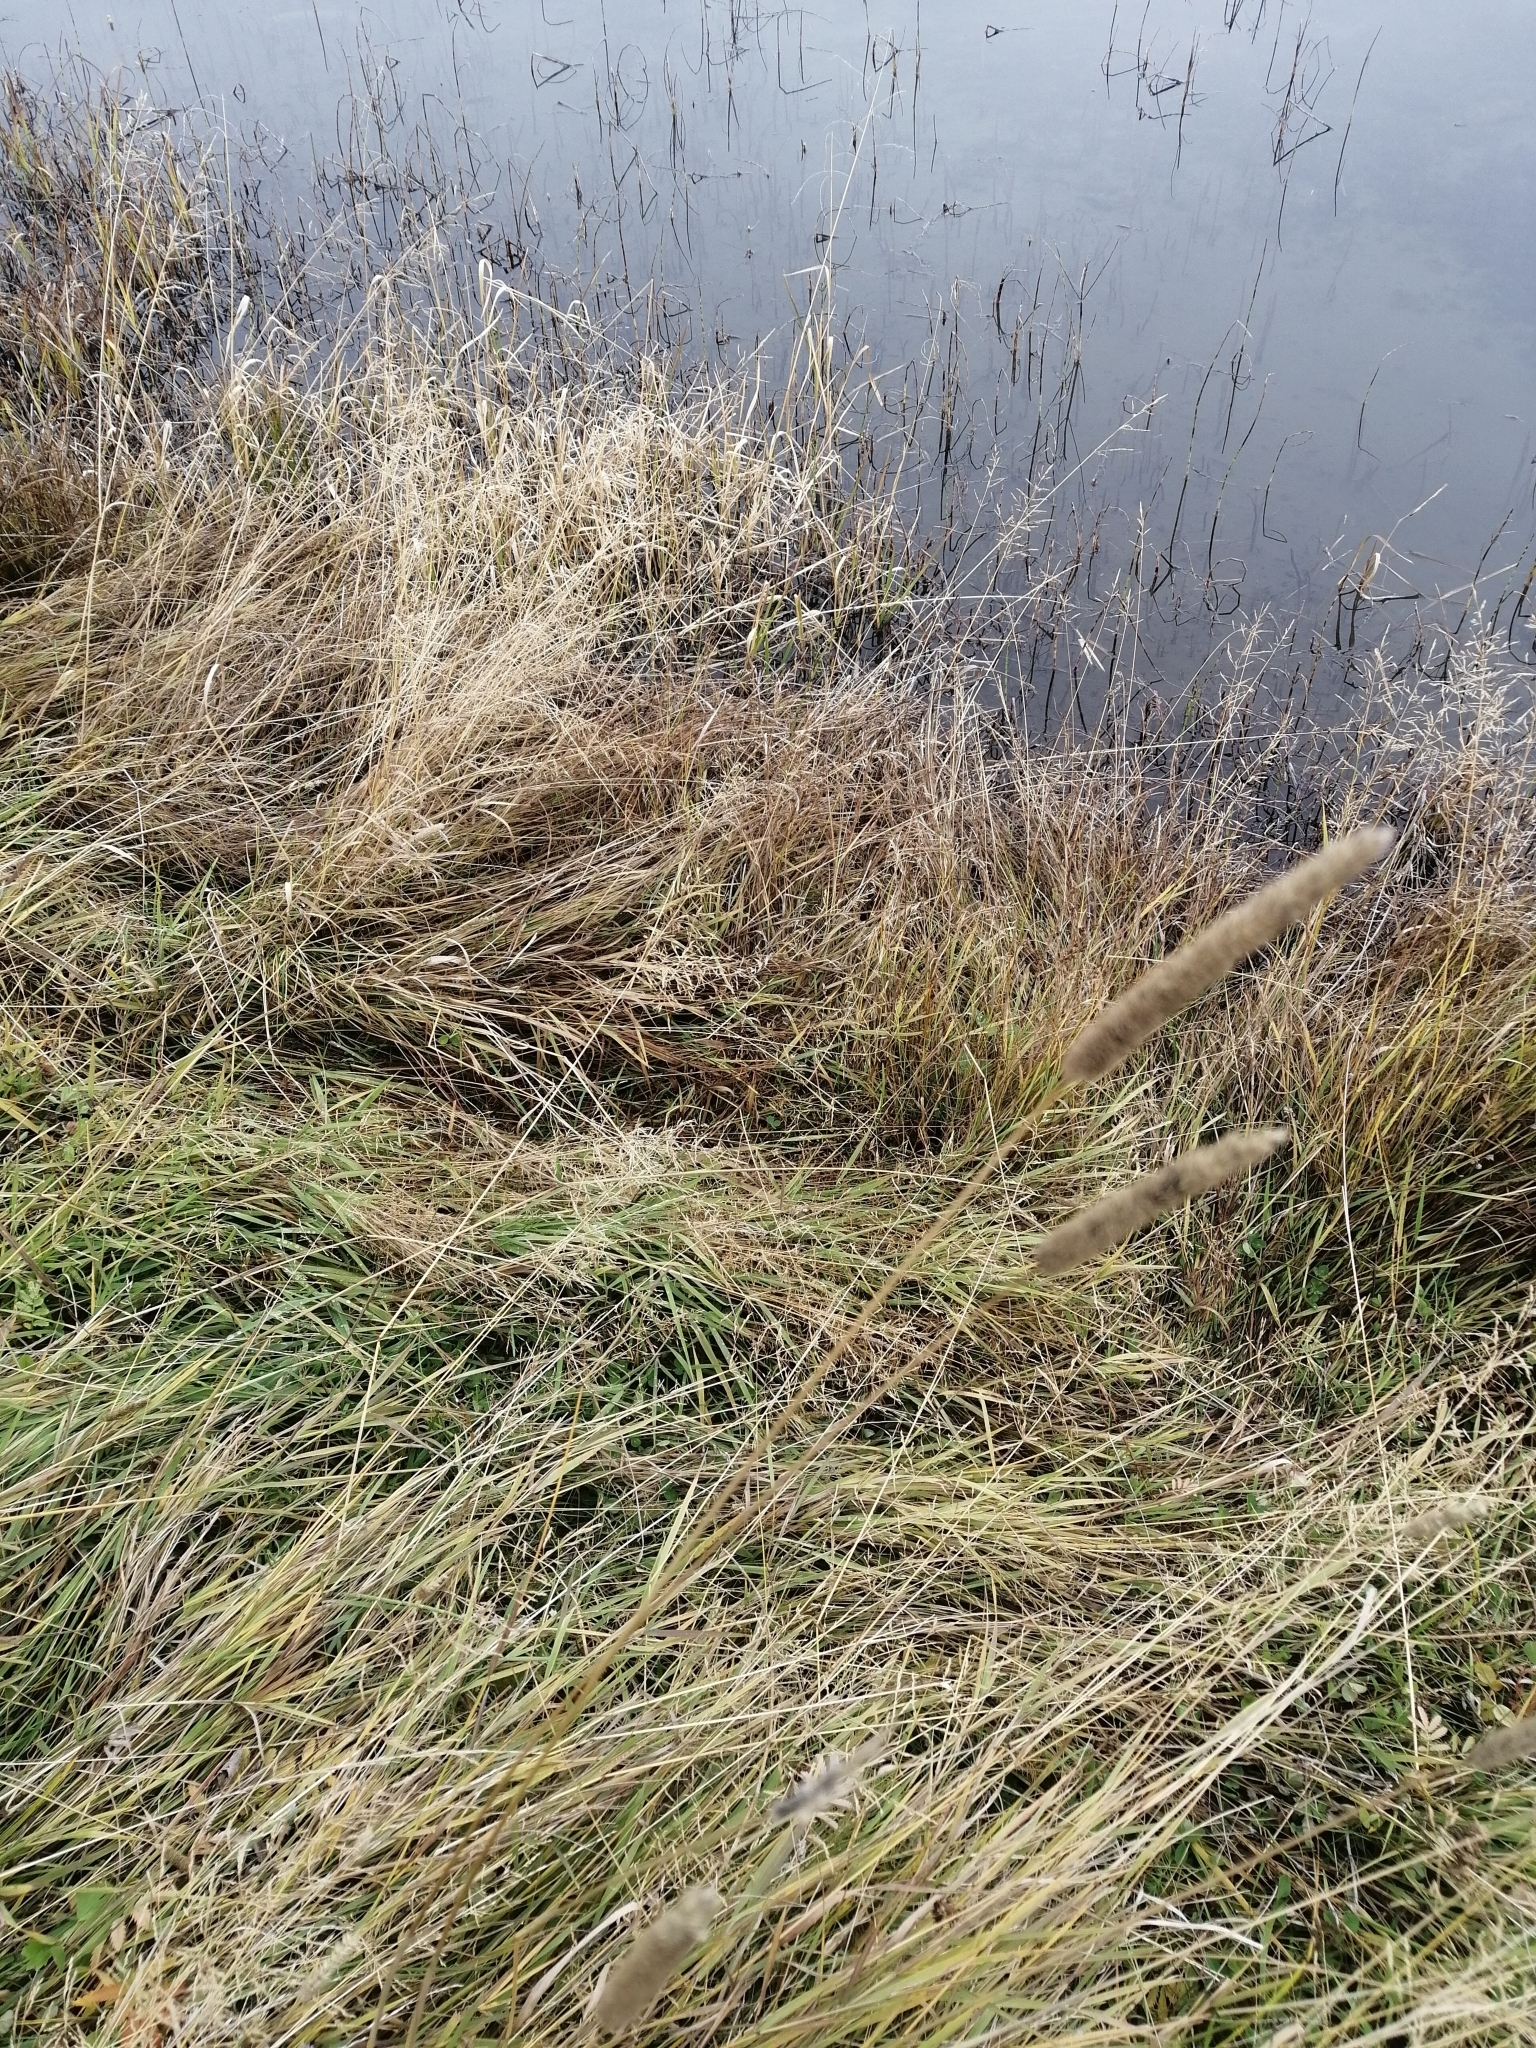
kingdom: Plantae
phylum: Tracheophyta
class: Liliopsida
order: Poales
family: Poaceae
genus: Phleum
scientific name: Phleum pratense
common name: Timothy grass
